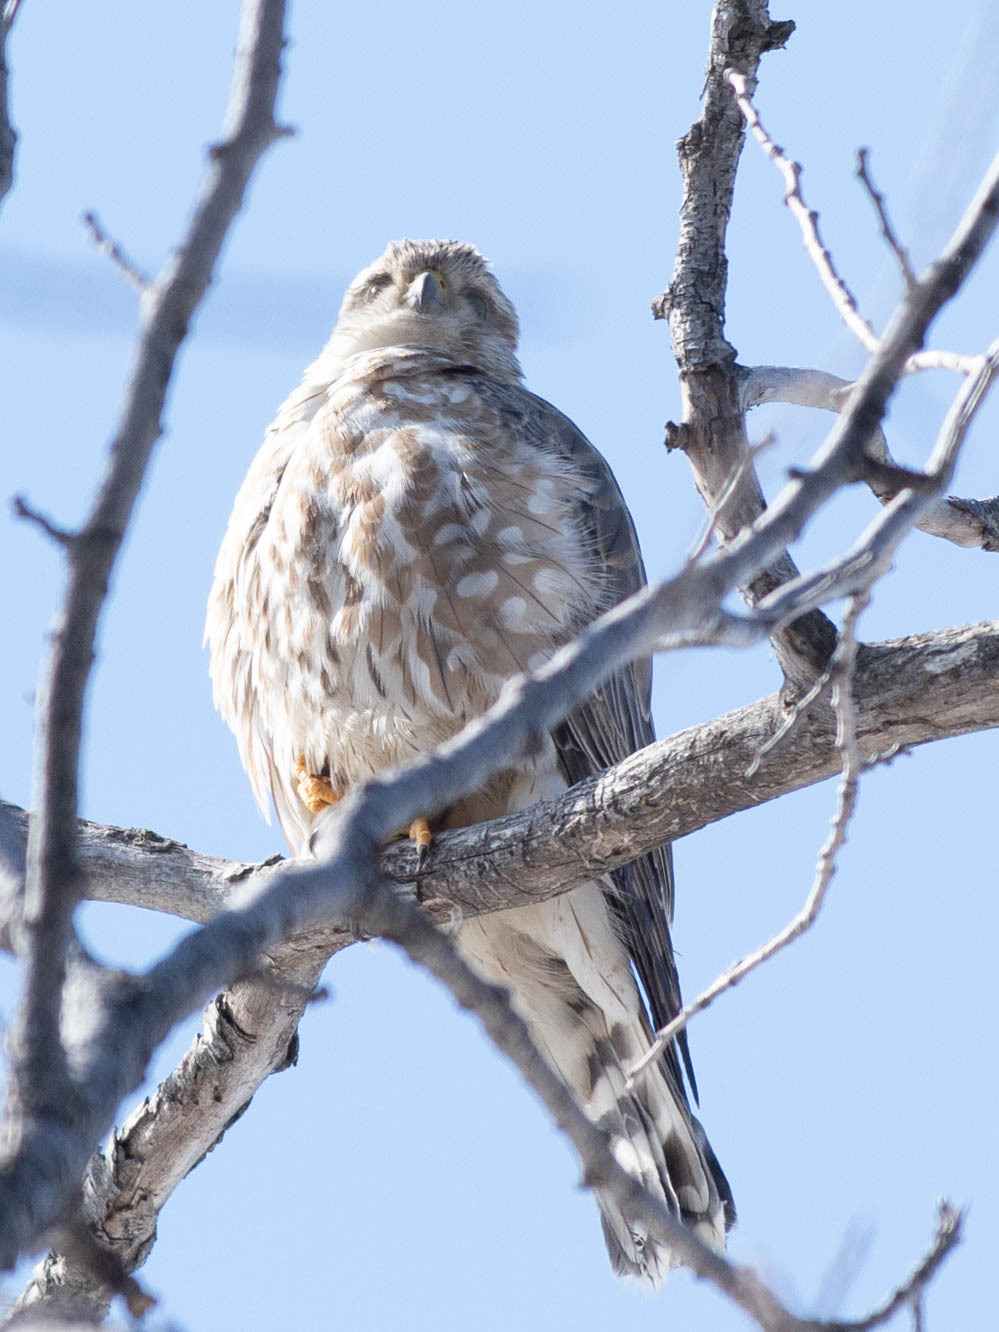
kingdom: Animalia
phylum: Chordata
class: Aves
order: Falconiformes
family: Falconidae
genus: Falco
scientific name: Falco columbarius
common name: Merlin
